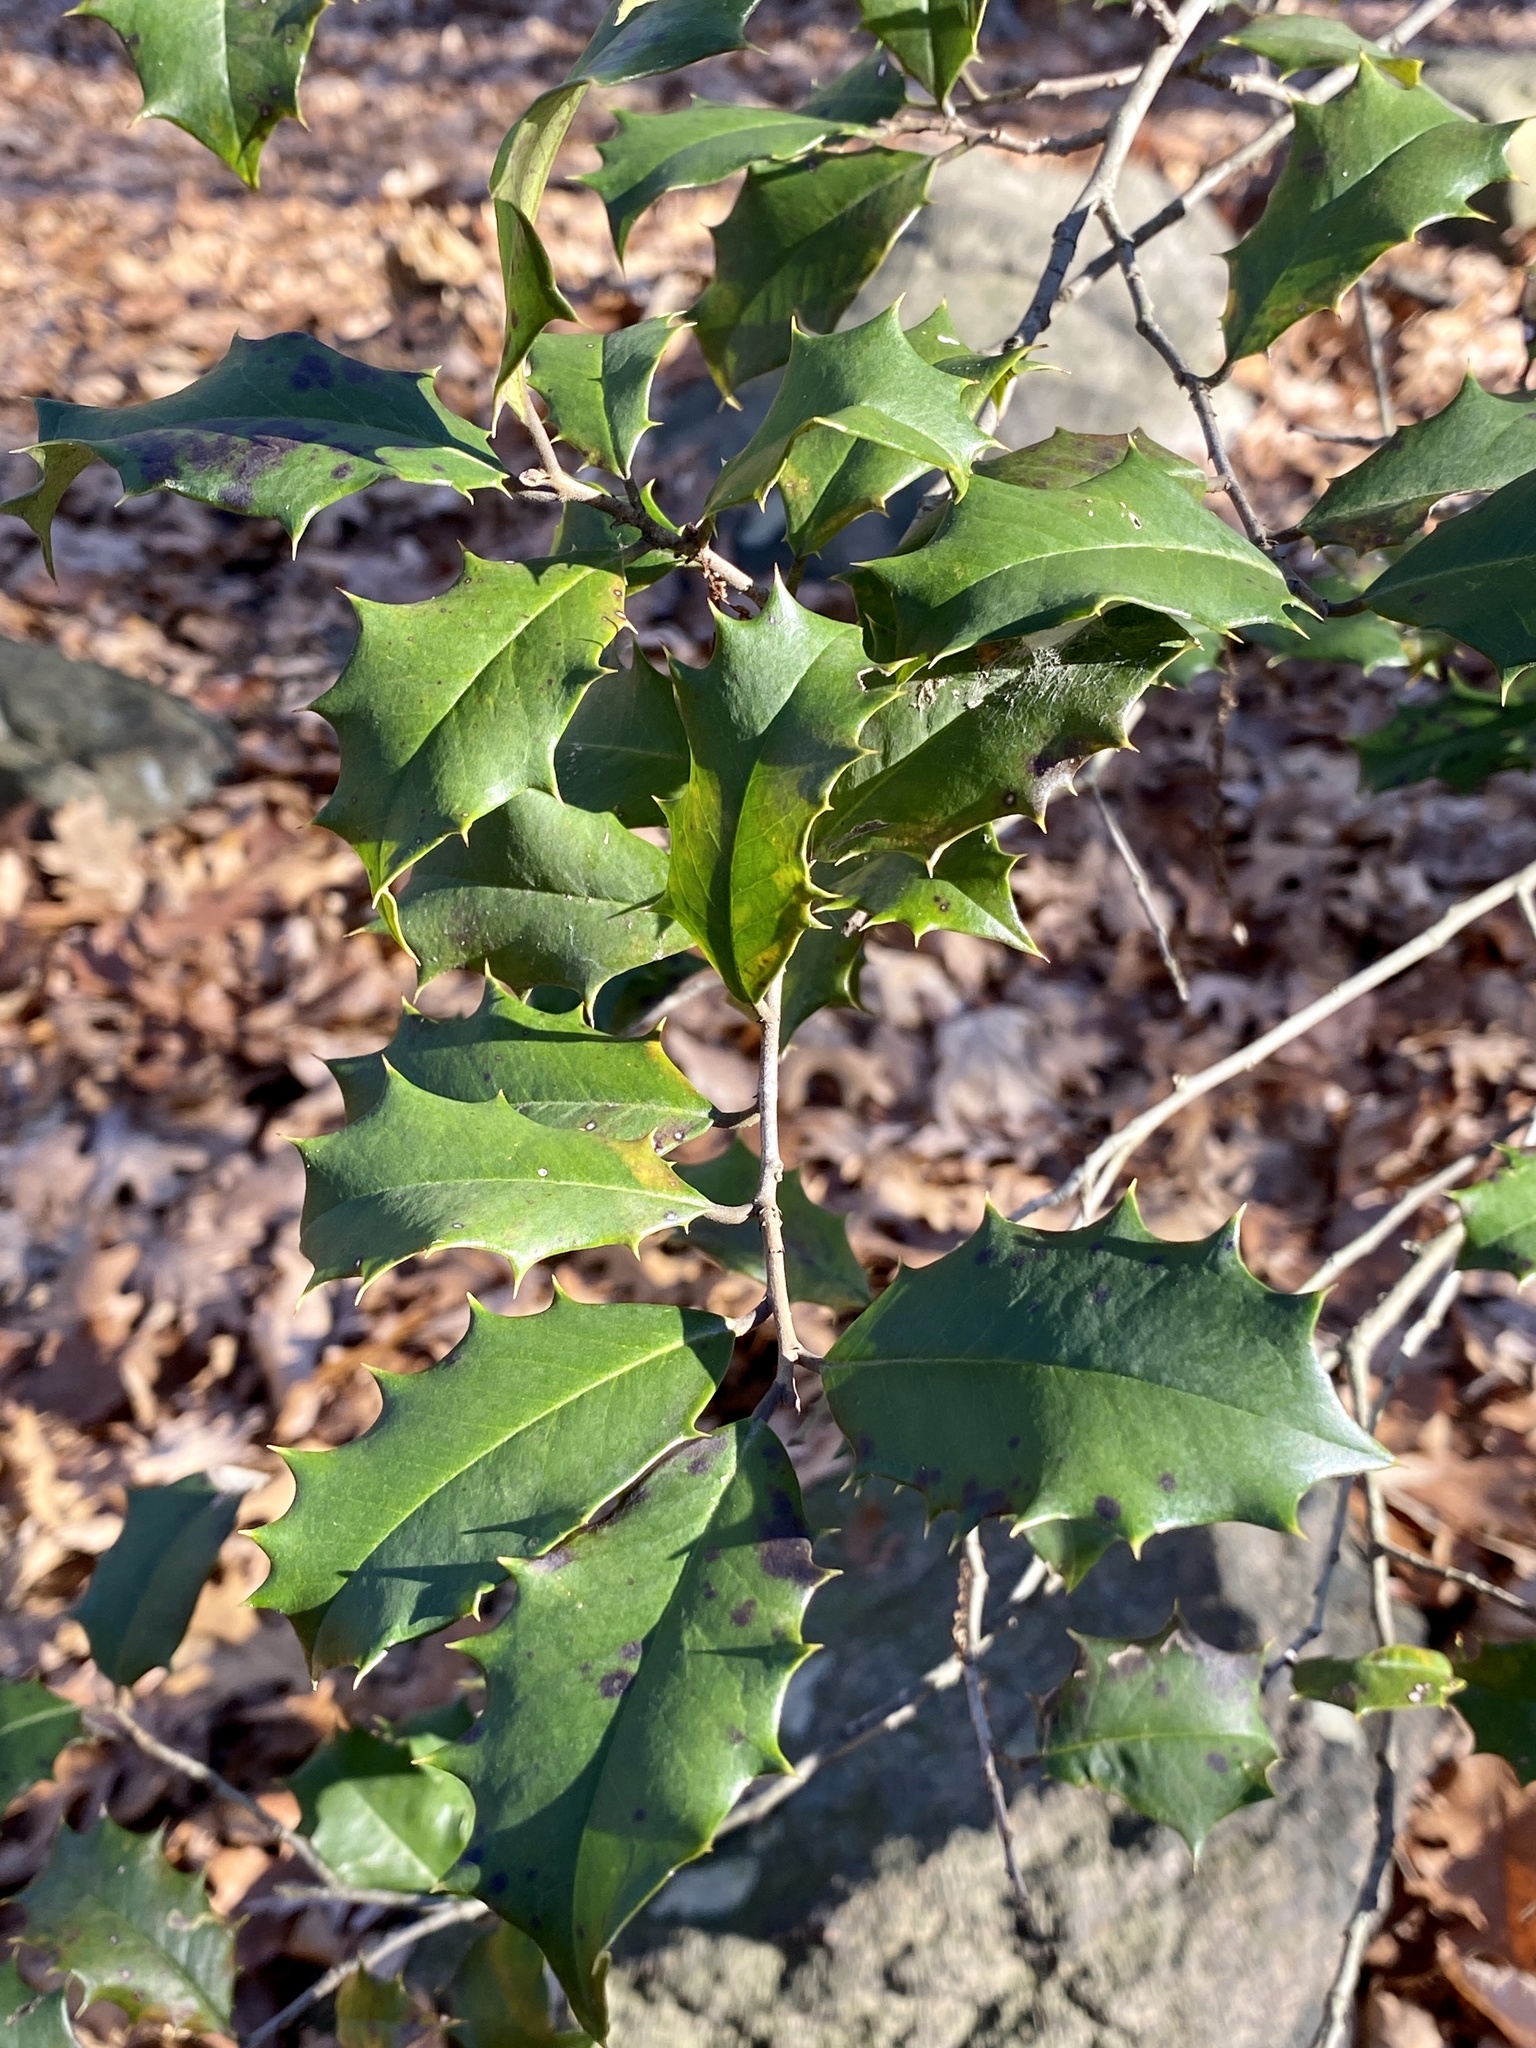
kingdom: Plantae
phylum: Tracheophyta
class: Magnoliopsida
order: Aquifoliales
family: Aquifoliaceae
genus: Ilex
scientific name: Ilex opaca
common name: American holly
